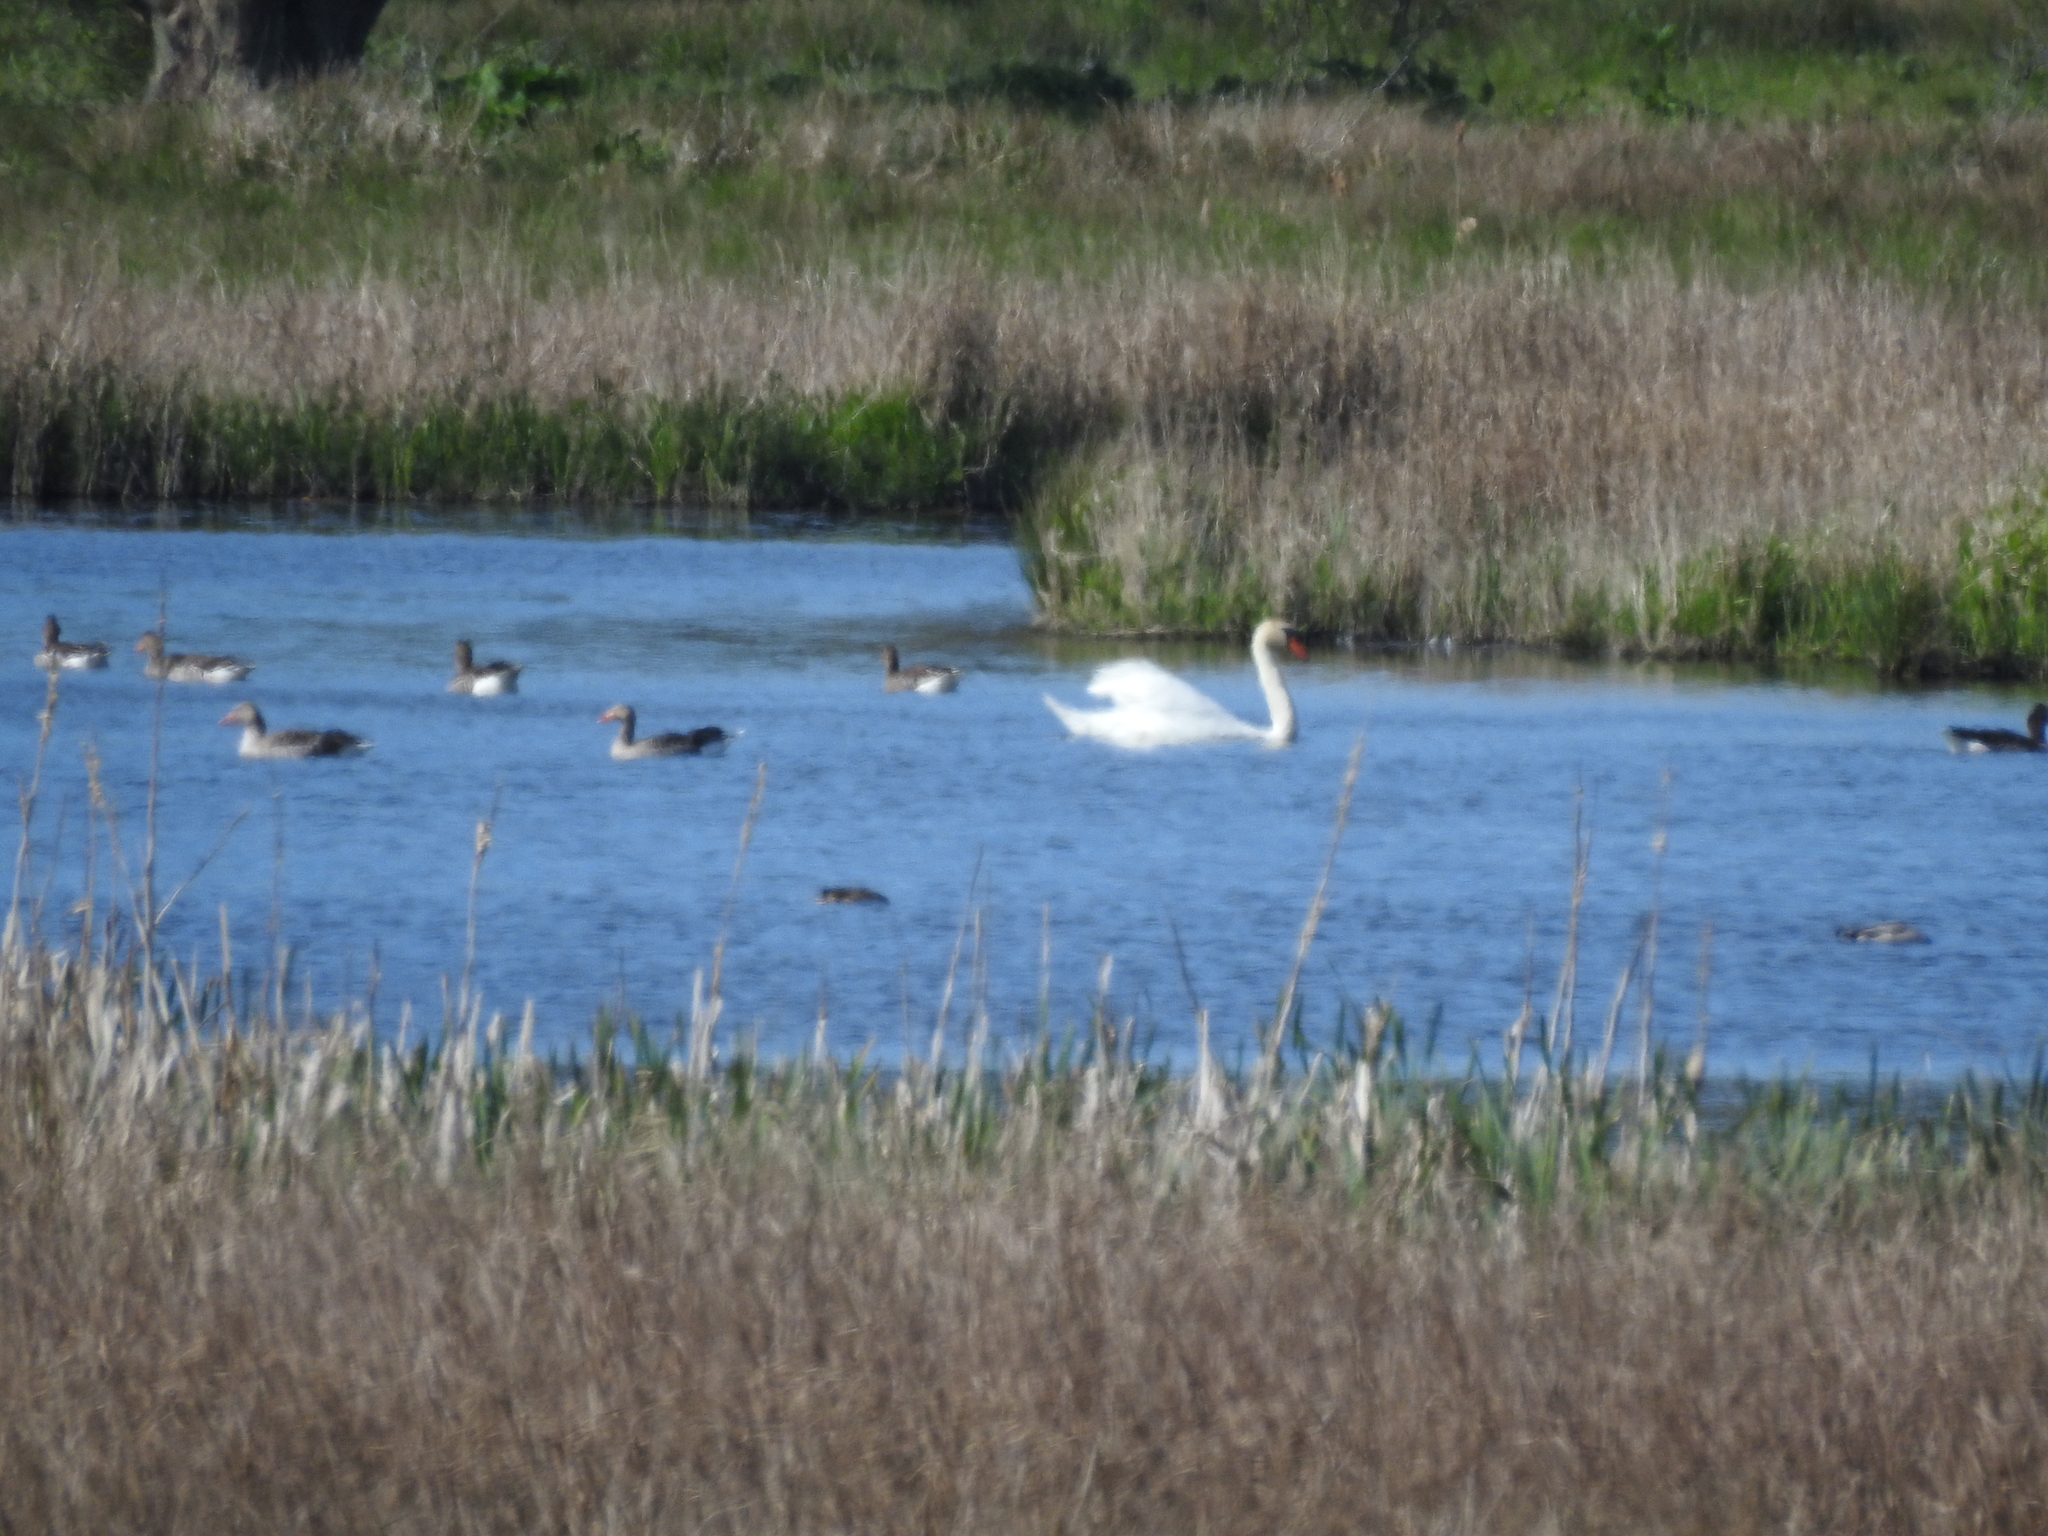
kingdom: Animalia
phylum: Chordata
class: Aves
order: Anseriformes
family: Anatidae
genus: Cygnus
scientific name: Cygnus olor
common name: Mute swan
